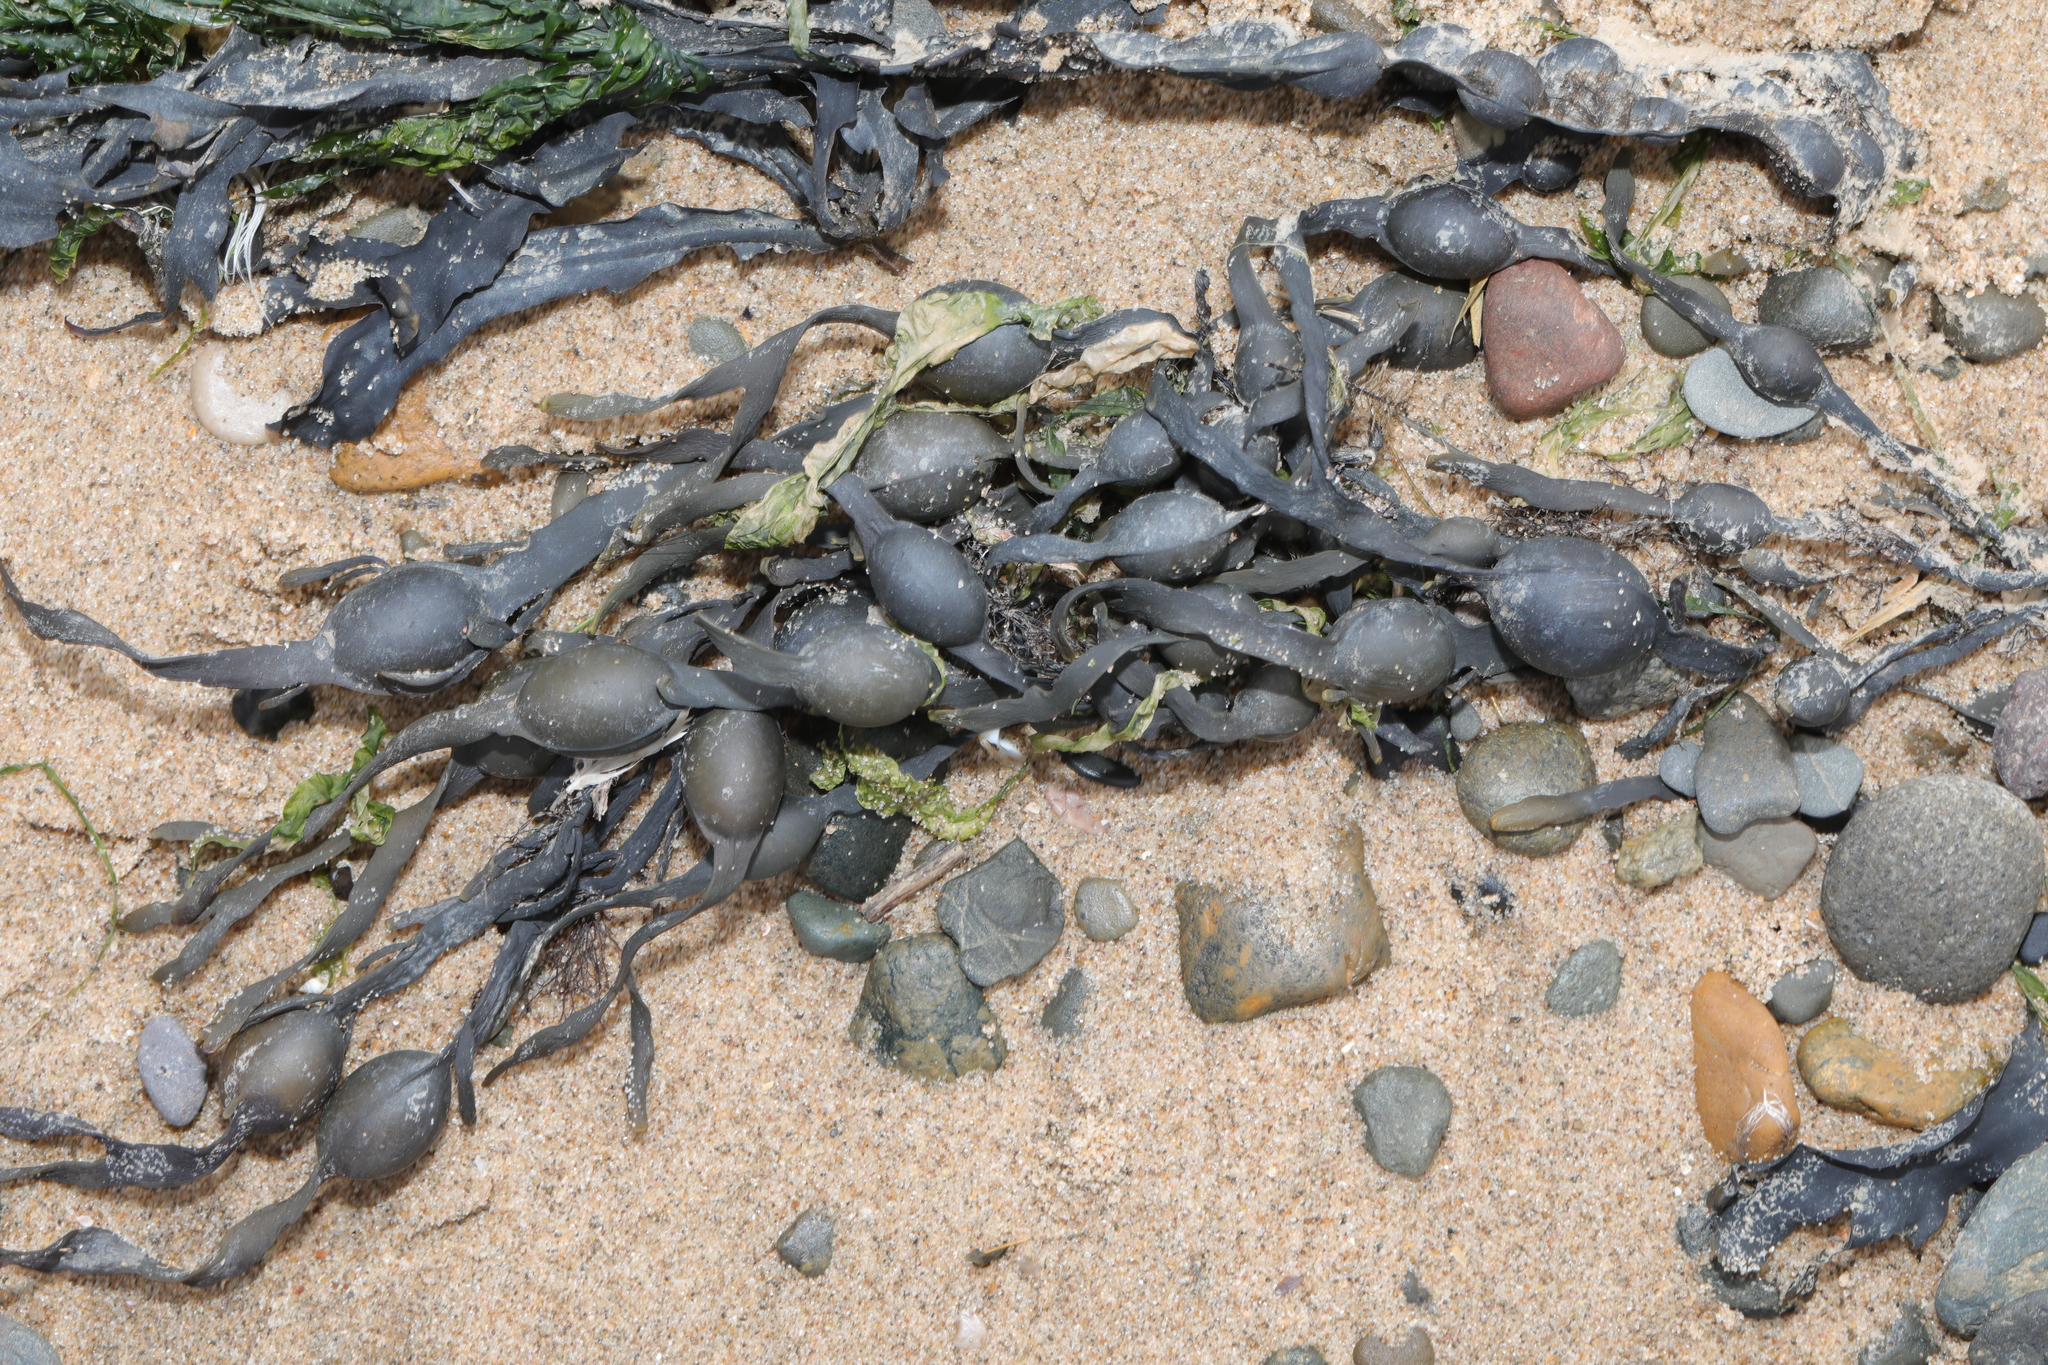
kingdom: Chromista
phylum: Ochrophyta
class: Phaeophyceae
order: Fucales
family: Fucaceae
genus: Ascophyllum
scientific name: Ascophyllum nodosum
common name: Knotted wrack
